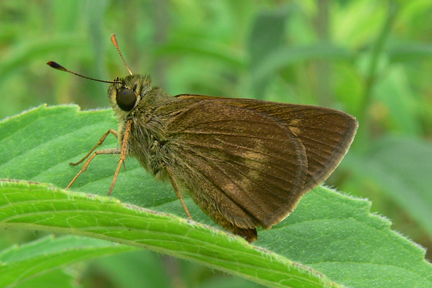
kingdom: Animalia
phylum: Arthropoda
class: Insecta
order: Lepidoptera
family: Hesperiidae
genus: Polites
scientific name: Polites egeremet
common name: Northern broken-dash
